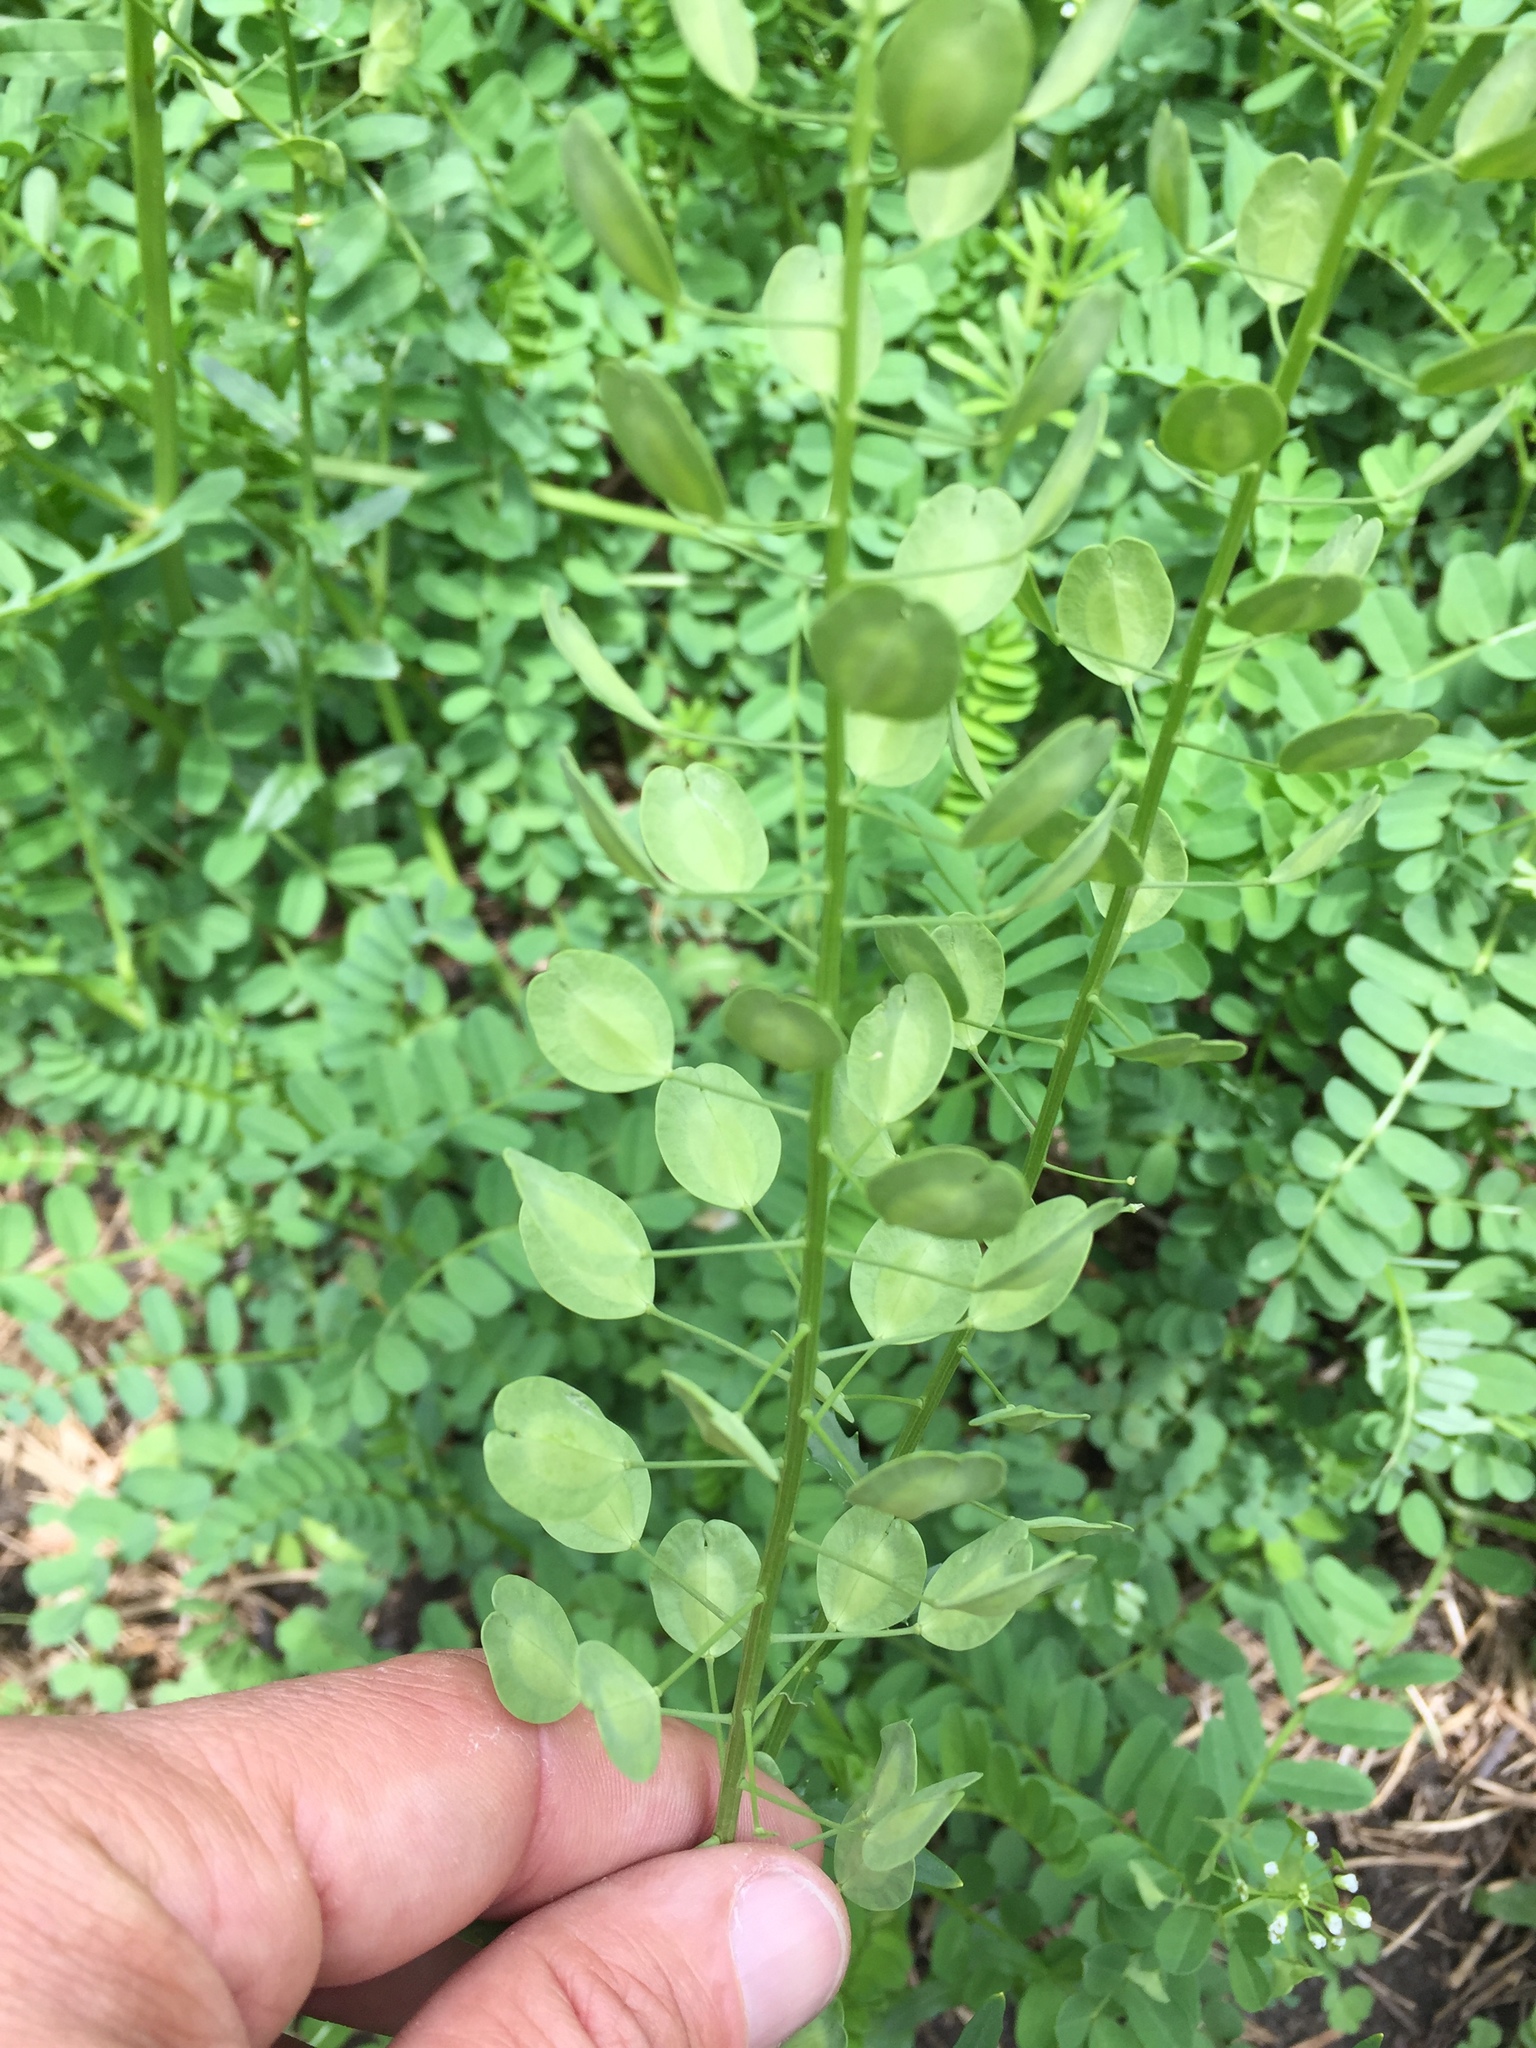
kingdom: Plantae
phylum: Tracheophyta
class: Magnoliopsida
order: Brassicales
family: Brassicaceae
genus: Thlaspi
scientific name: Thlaspi arvense
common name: Field pennycress
